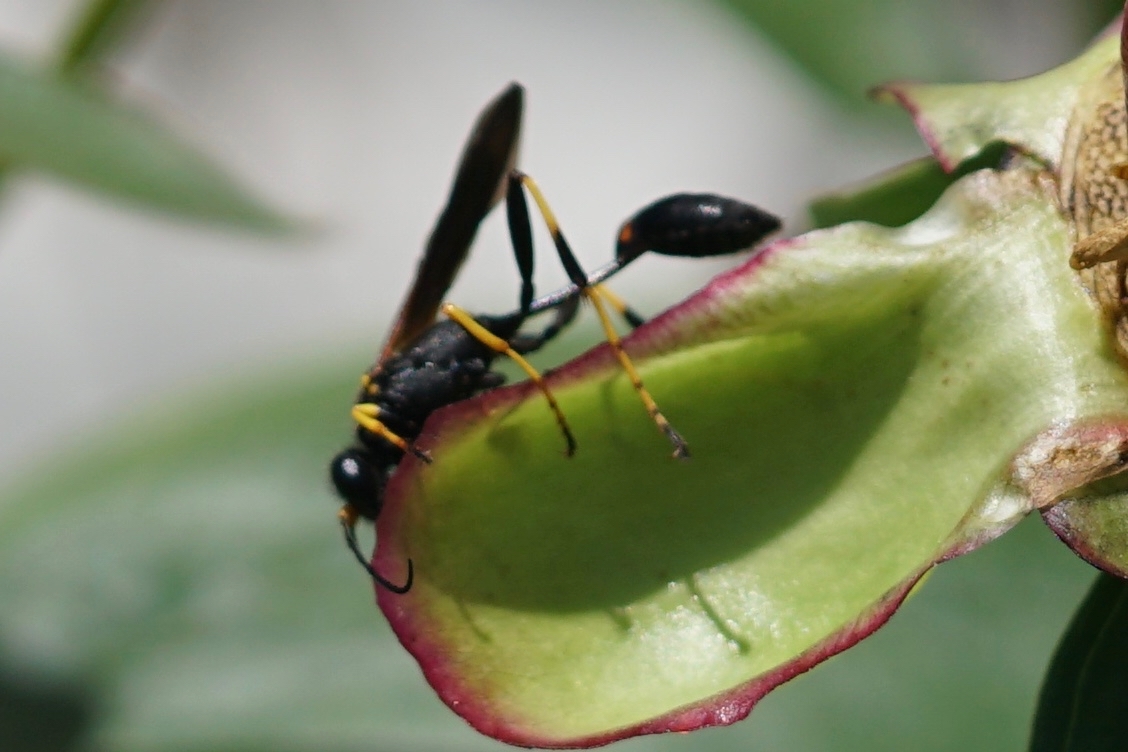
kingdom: Animalia
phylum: Arthropoda
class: Insecta
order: Hymenoptera
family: Sphecidae
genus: Sceliphron
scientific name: Sceliphron caementarium
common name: Mud dauber
